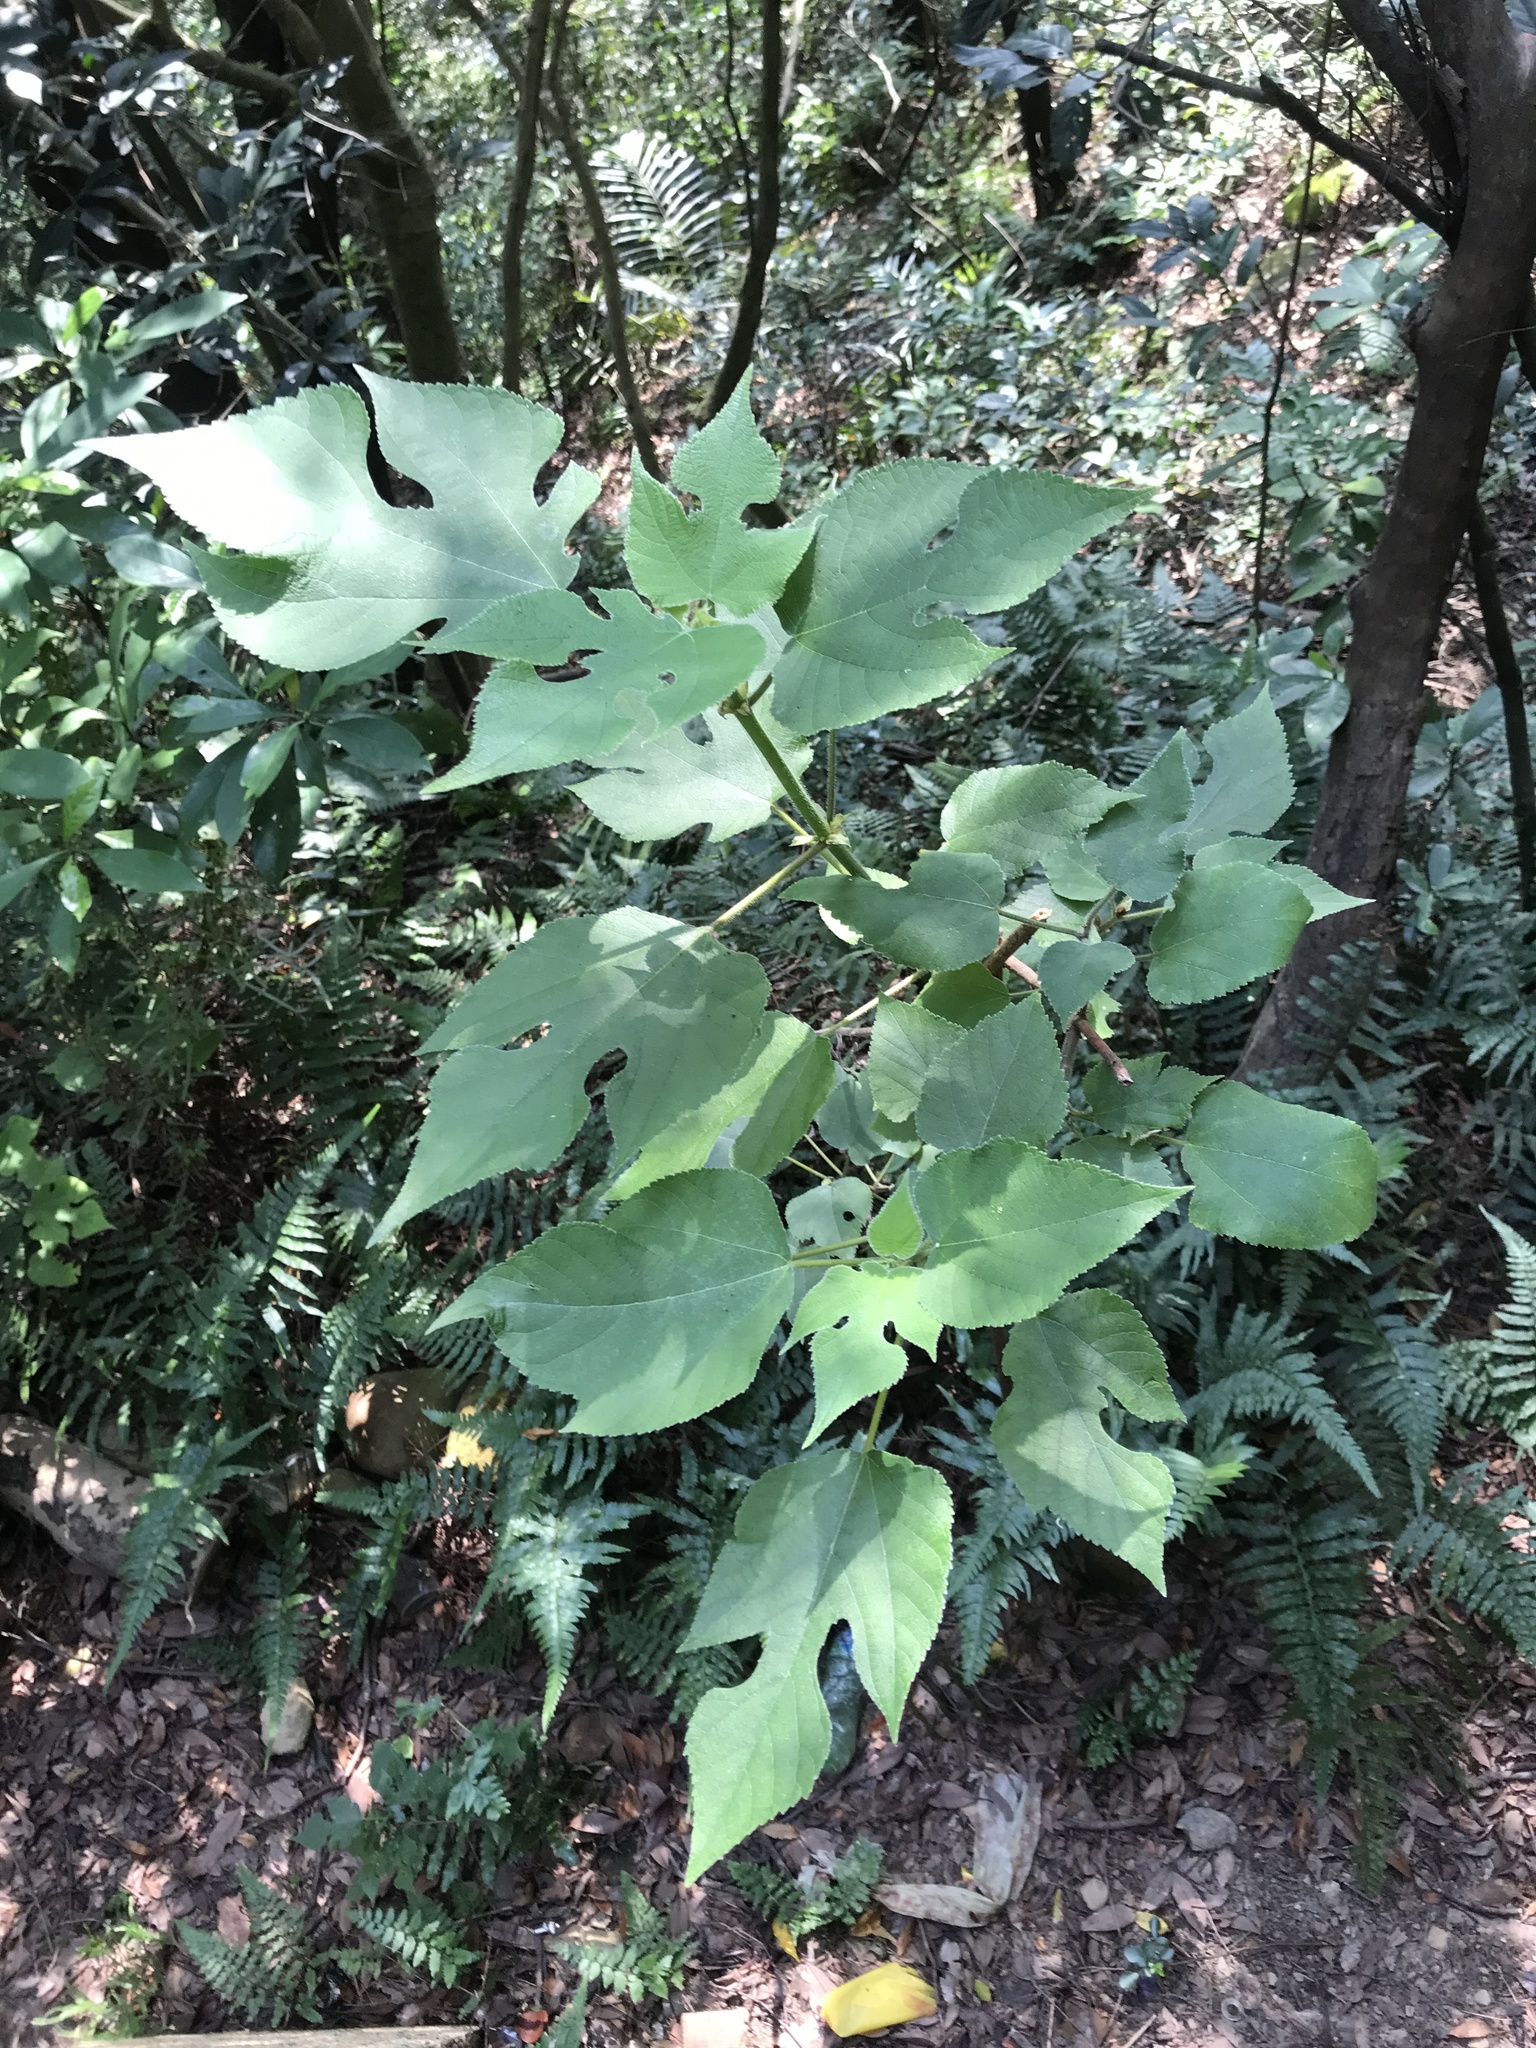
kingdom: Plantae
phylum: Tracheophyta
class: Magnoliopsida
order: Rosales
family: Moraceae
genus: Broussonetia
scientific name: Broussonetia papyrifera
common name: Paper mulberry
